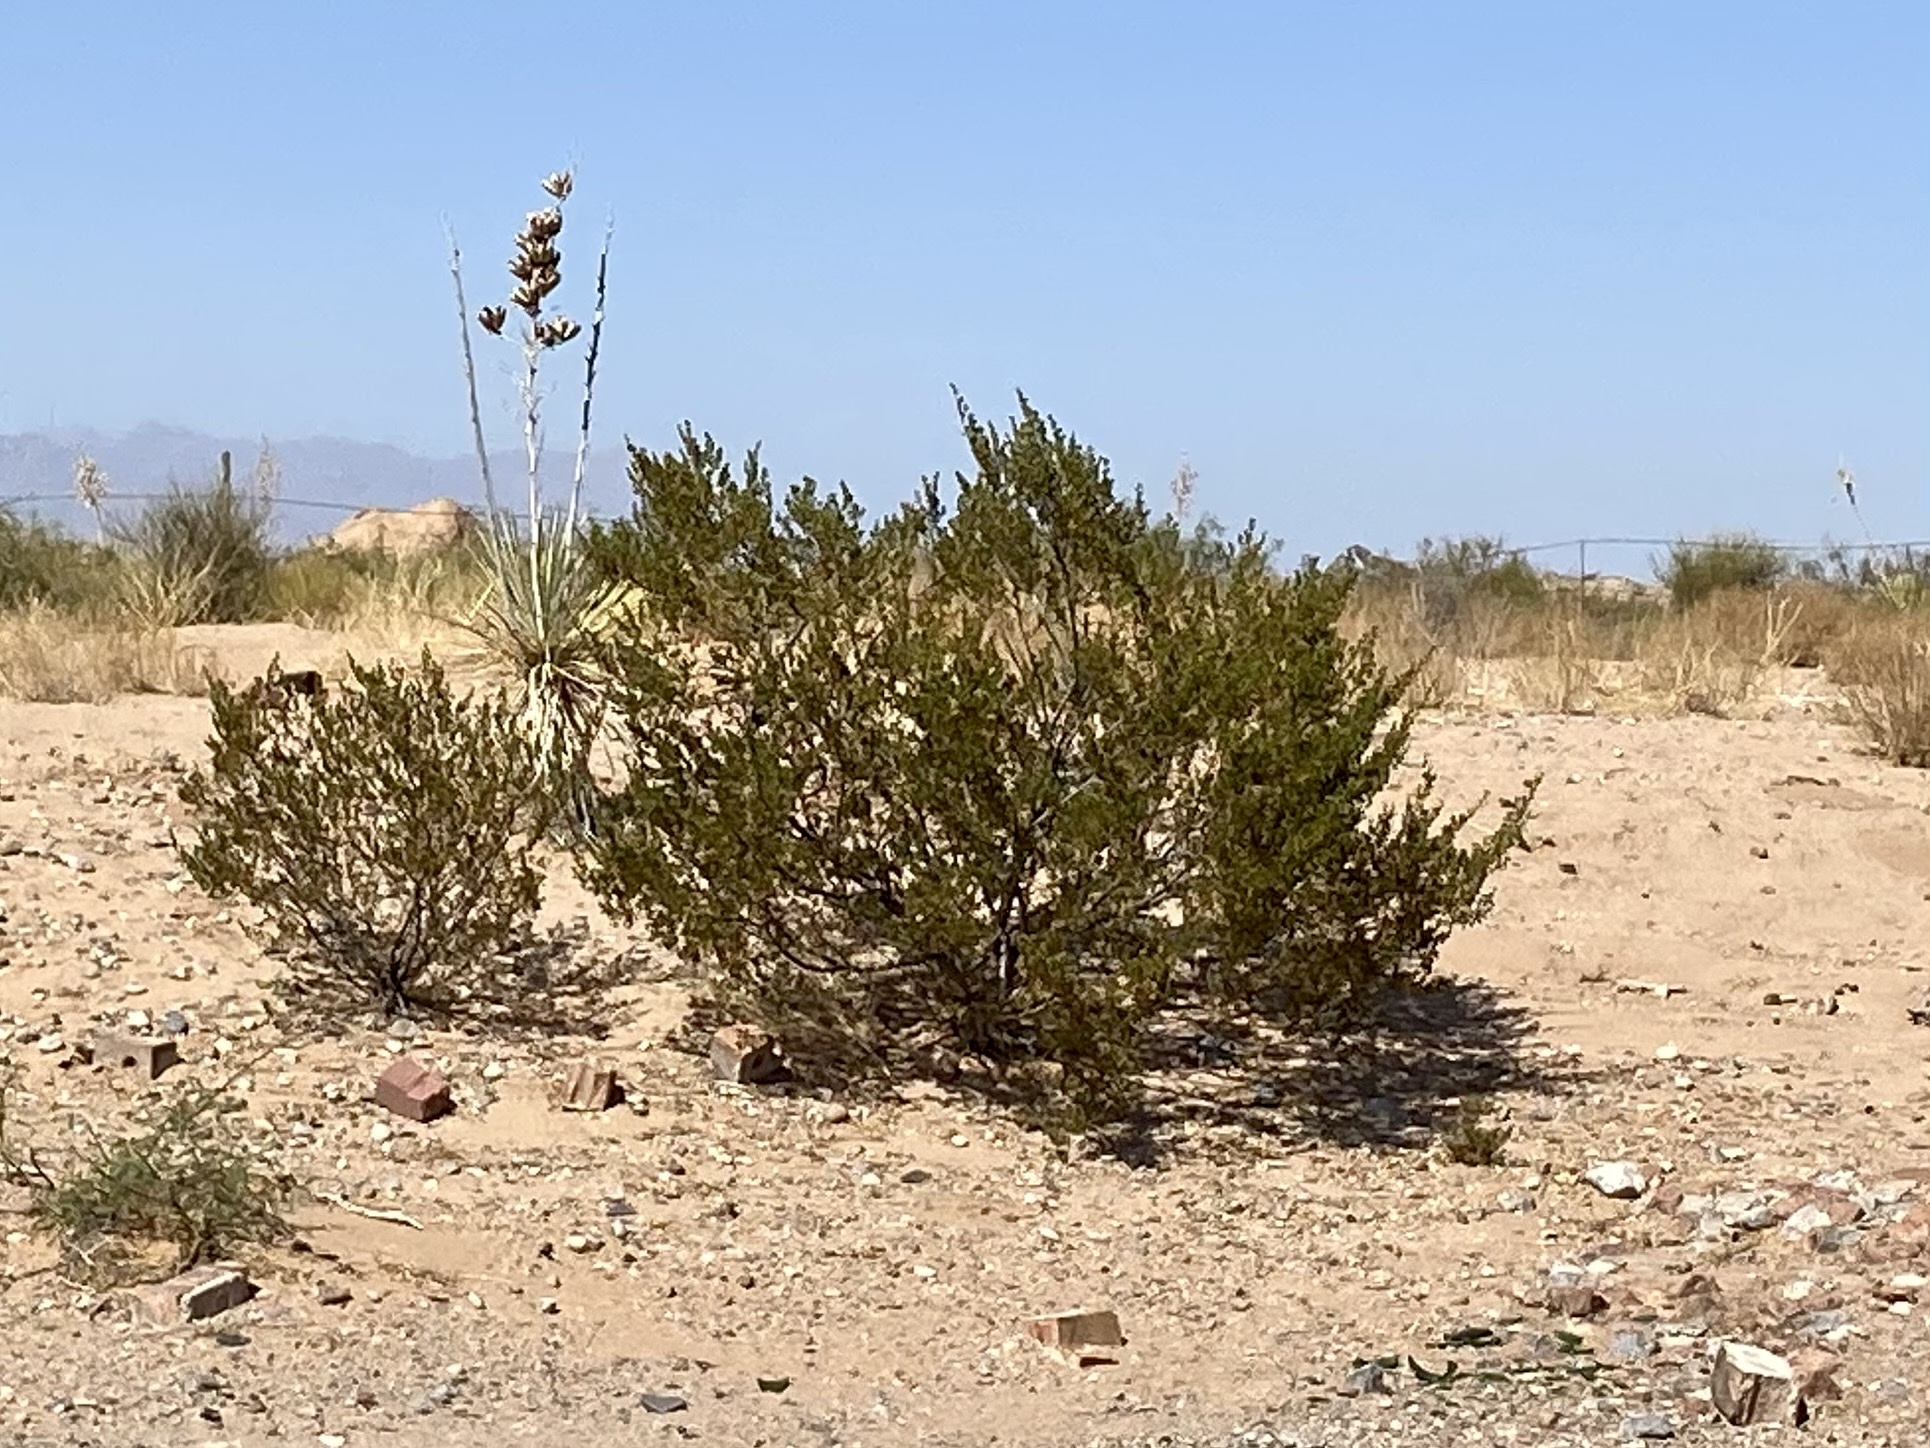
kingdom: Plantae
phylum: Tracheophyta
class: Magnoliopsida
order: Zygophyllales
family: Zygophyllaceae
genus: Larrea
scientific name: Larrea tridentata
